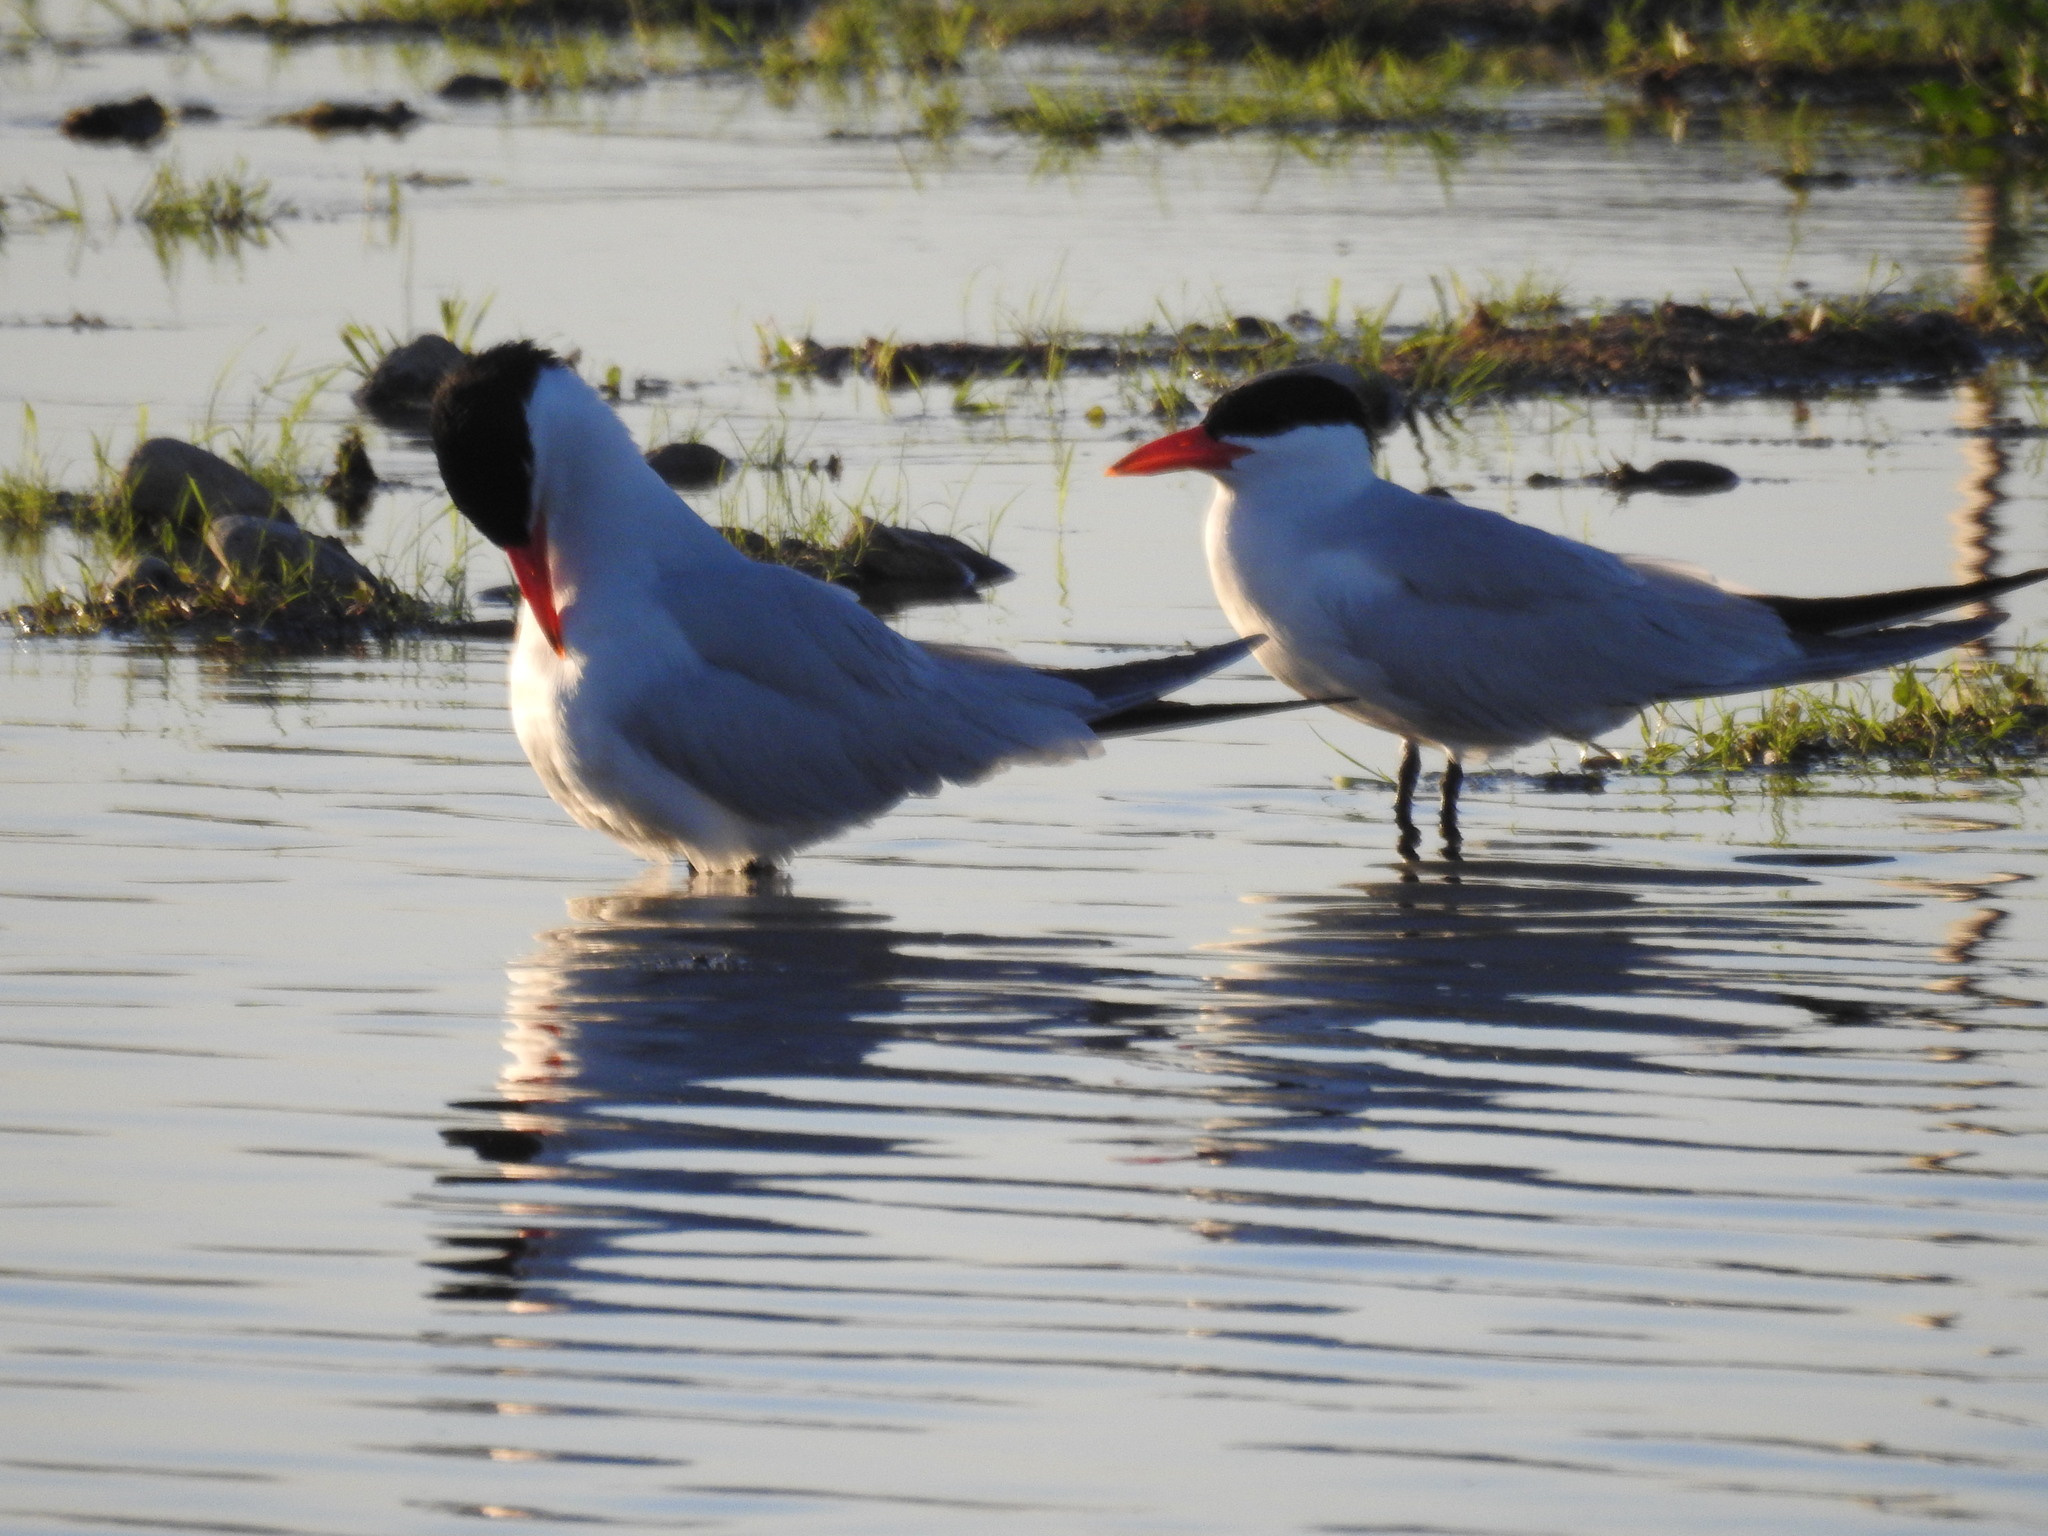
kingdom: Animalia
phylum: Chordata
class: Aves
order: Charadriiformes
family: Laridae
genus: Hydroprogne
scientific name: Hydroprogne caspia
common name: Caspian tern
